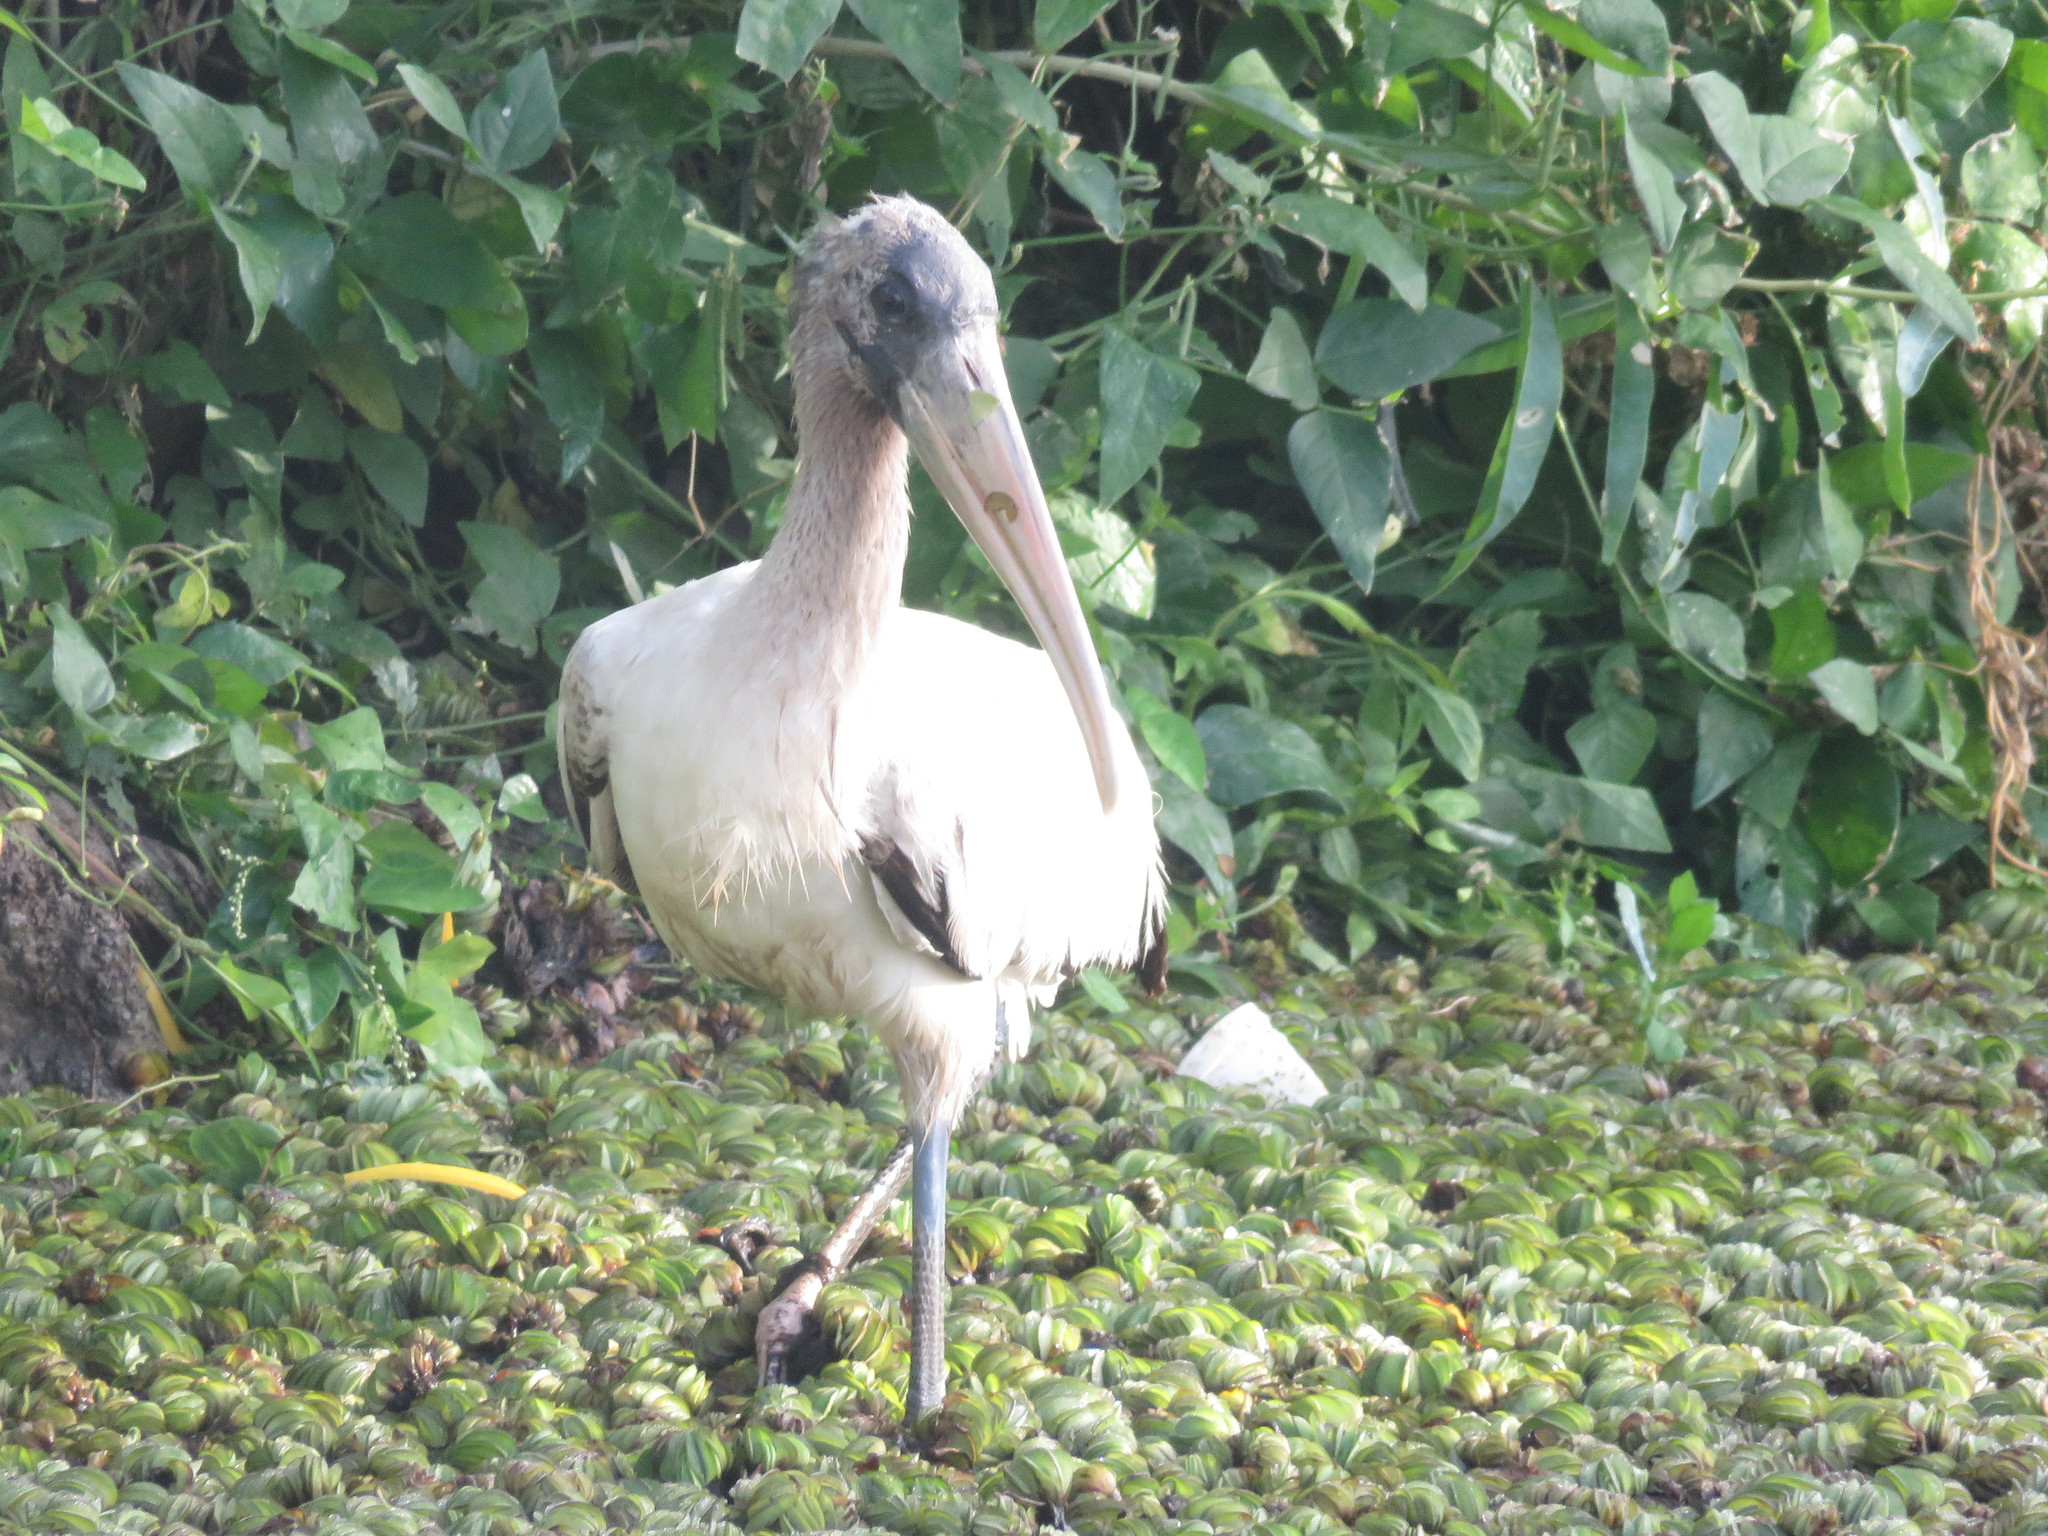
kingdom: Animalia
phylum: Chordata
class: Aves
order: Ciconiiformes
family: Ciconiidae
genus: Mycteria
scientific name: Mycteria americana
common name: Wood stork
